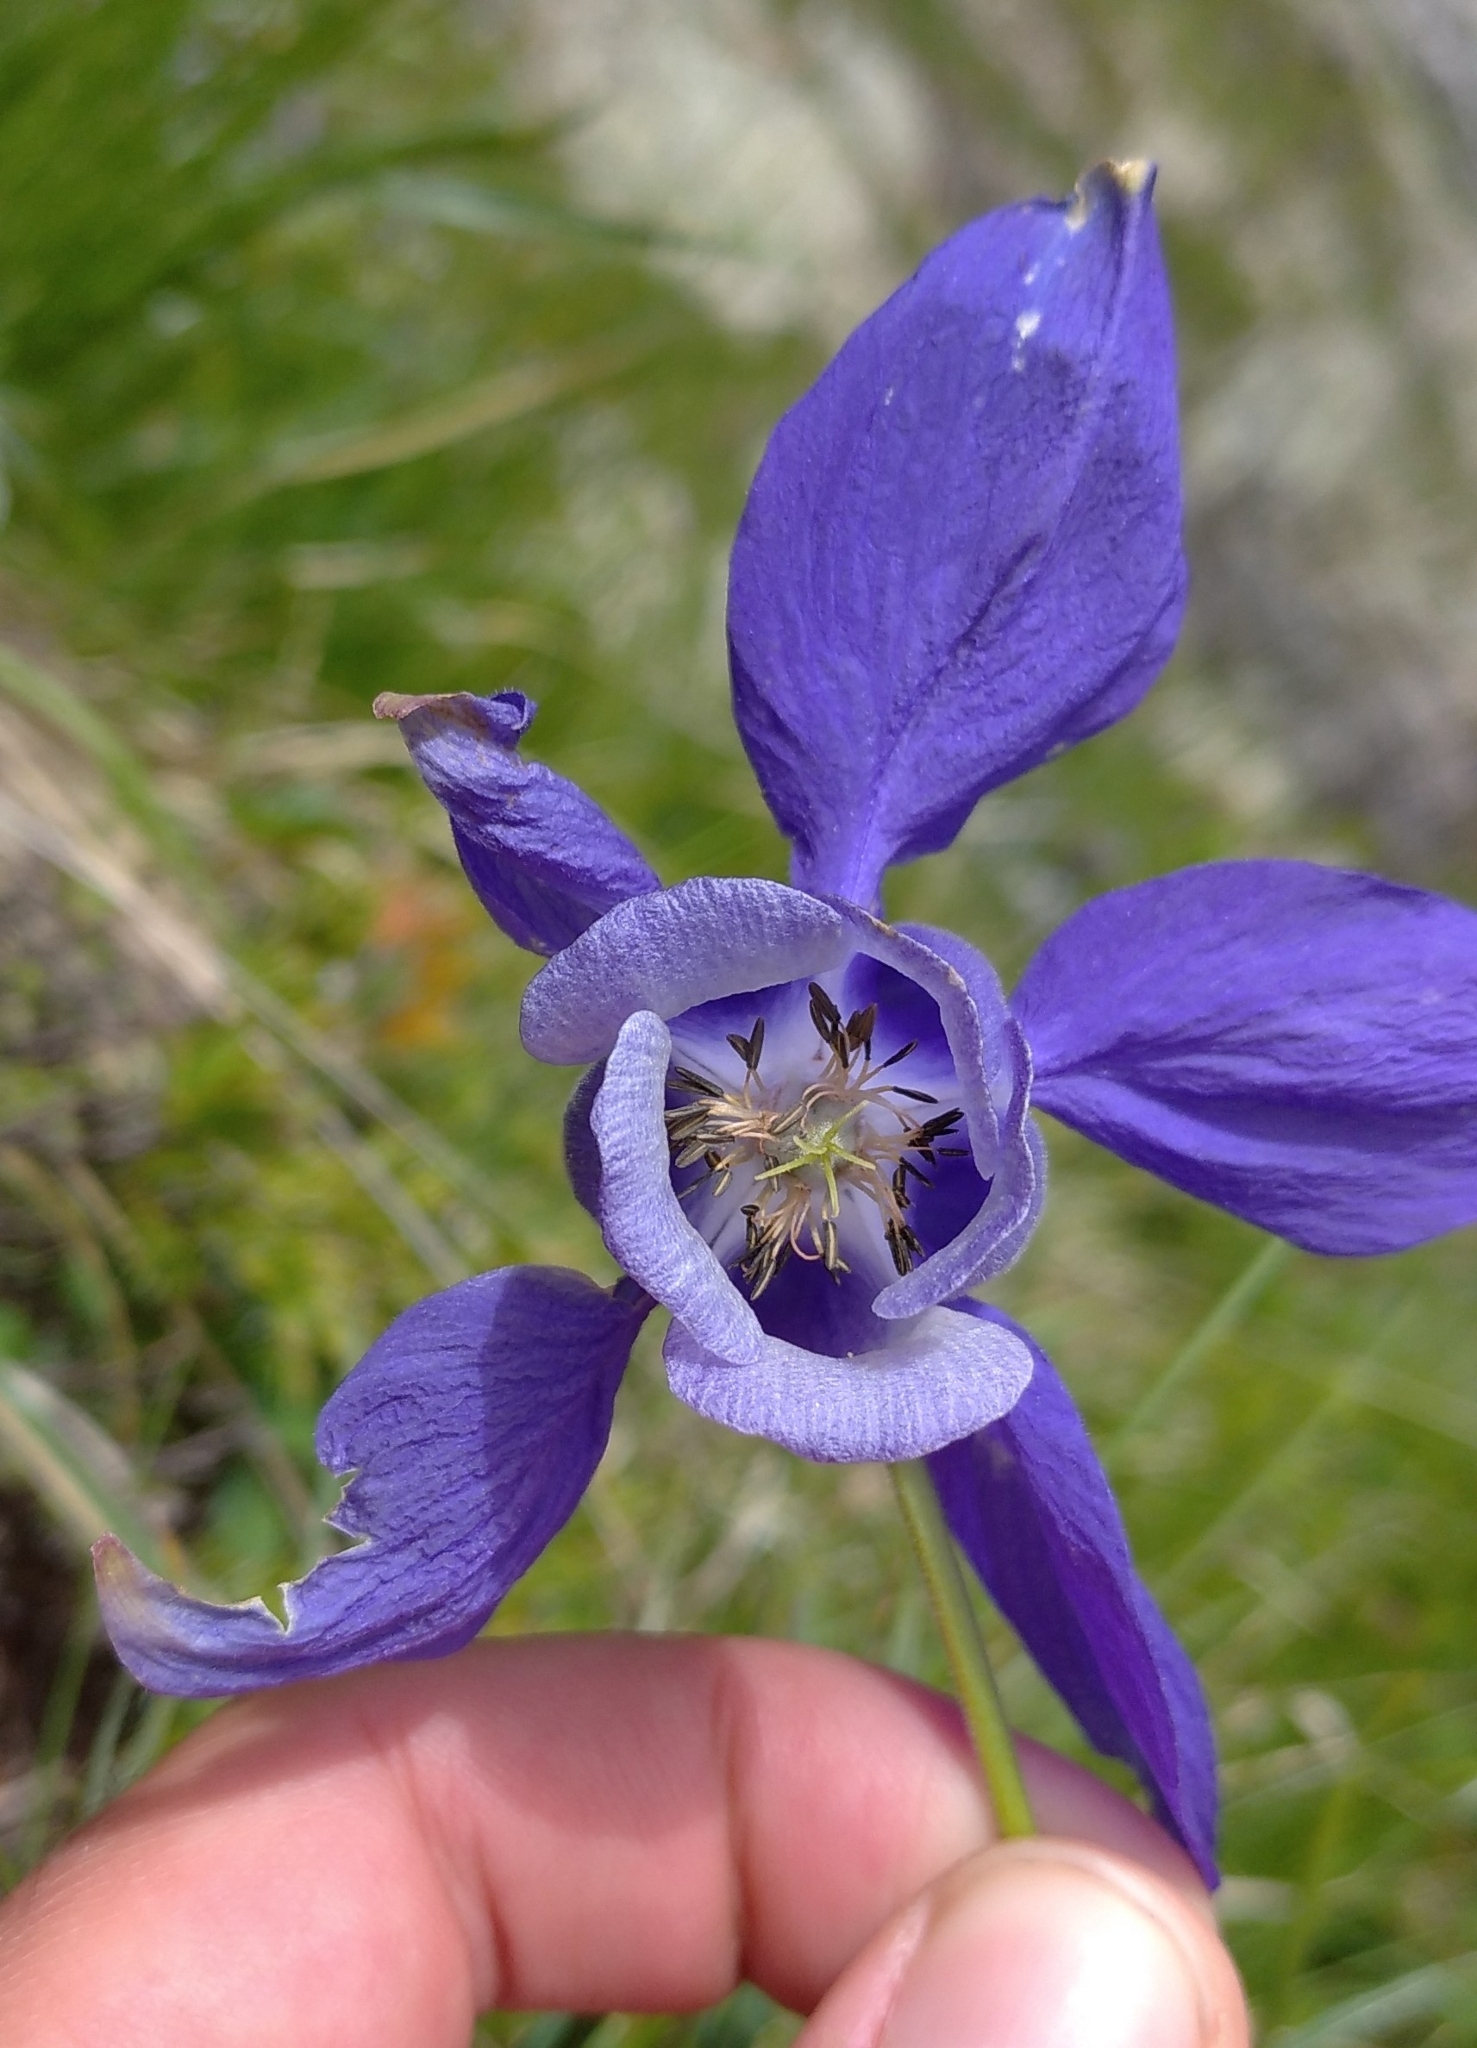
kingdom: Plantae
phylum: Tracheophyta
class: Magnoliopsida
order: Ranunculales
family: Ranunculaceae
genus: Aquilegia
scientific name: Aquilegia alpina
